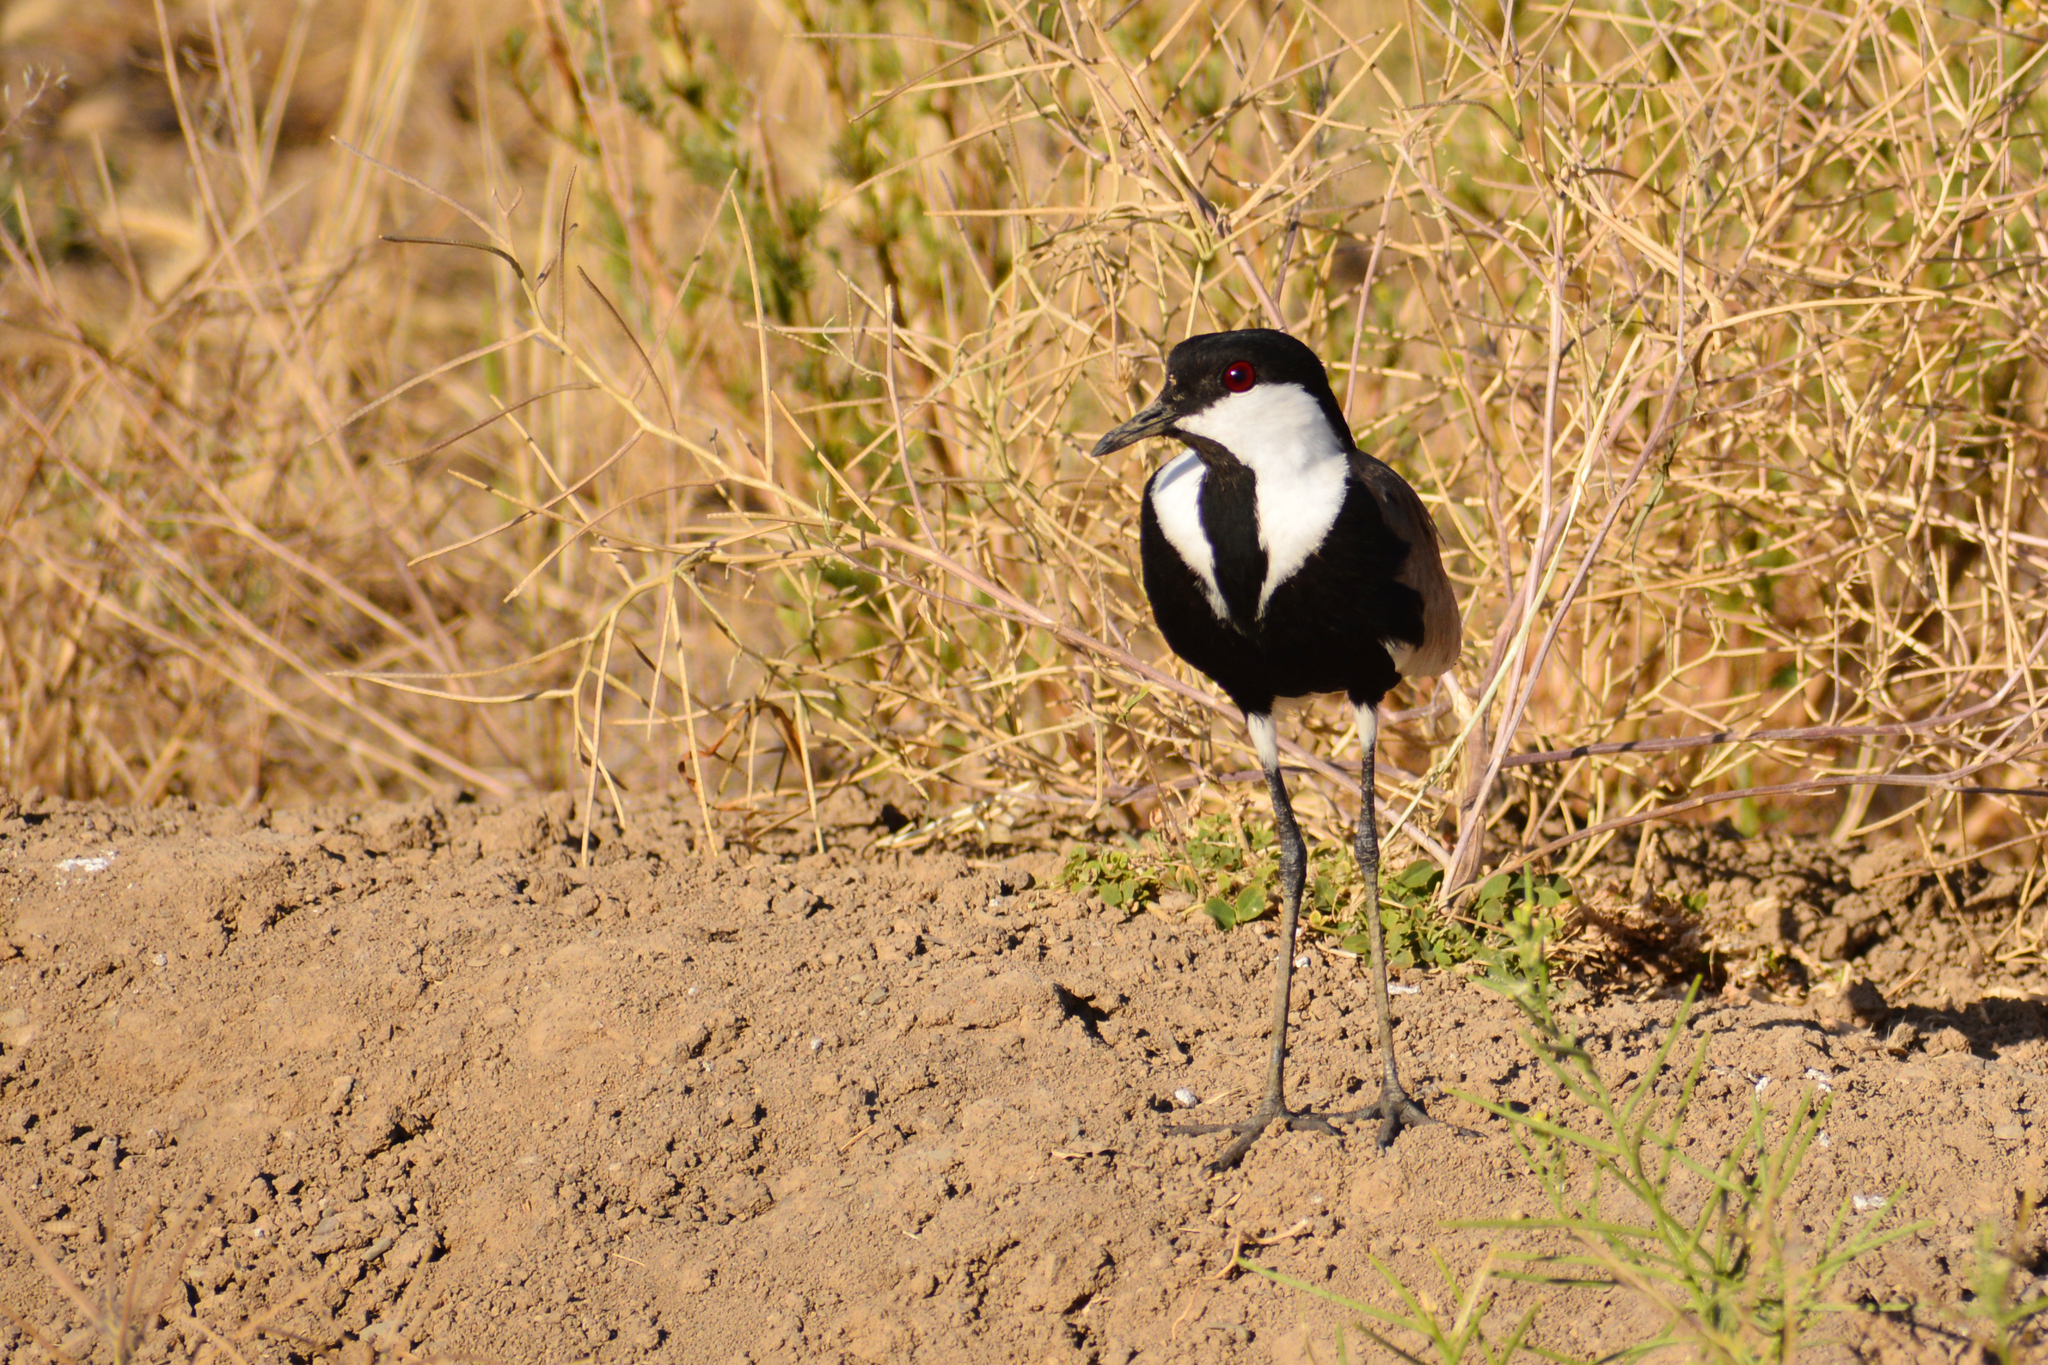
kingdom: Animalia
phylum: Chordata
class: Aves
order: Charadriiformes
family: Charadriidae
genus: Vanellus
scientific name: Vanellus spinosus
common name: Spur-winged lapwing
